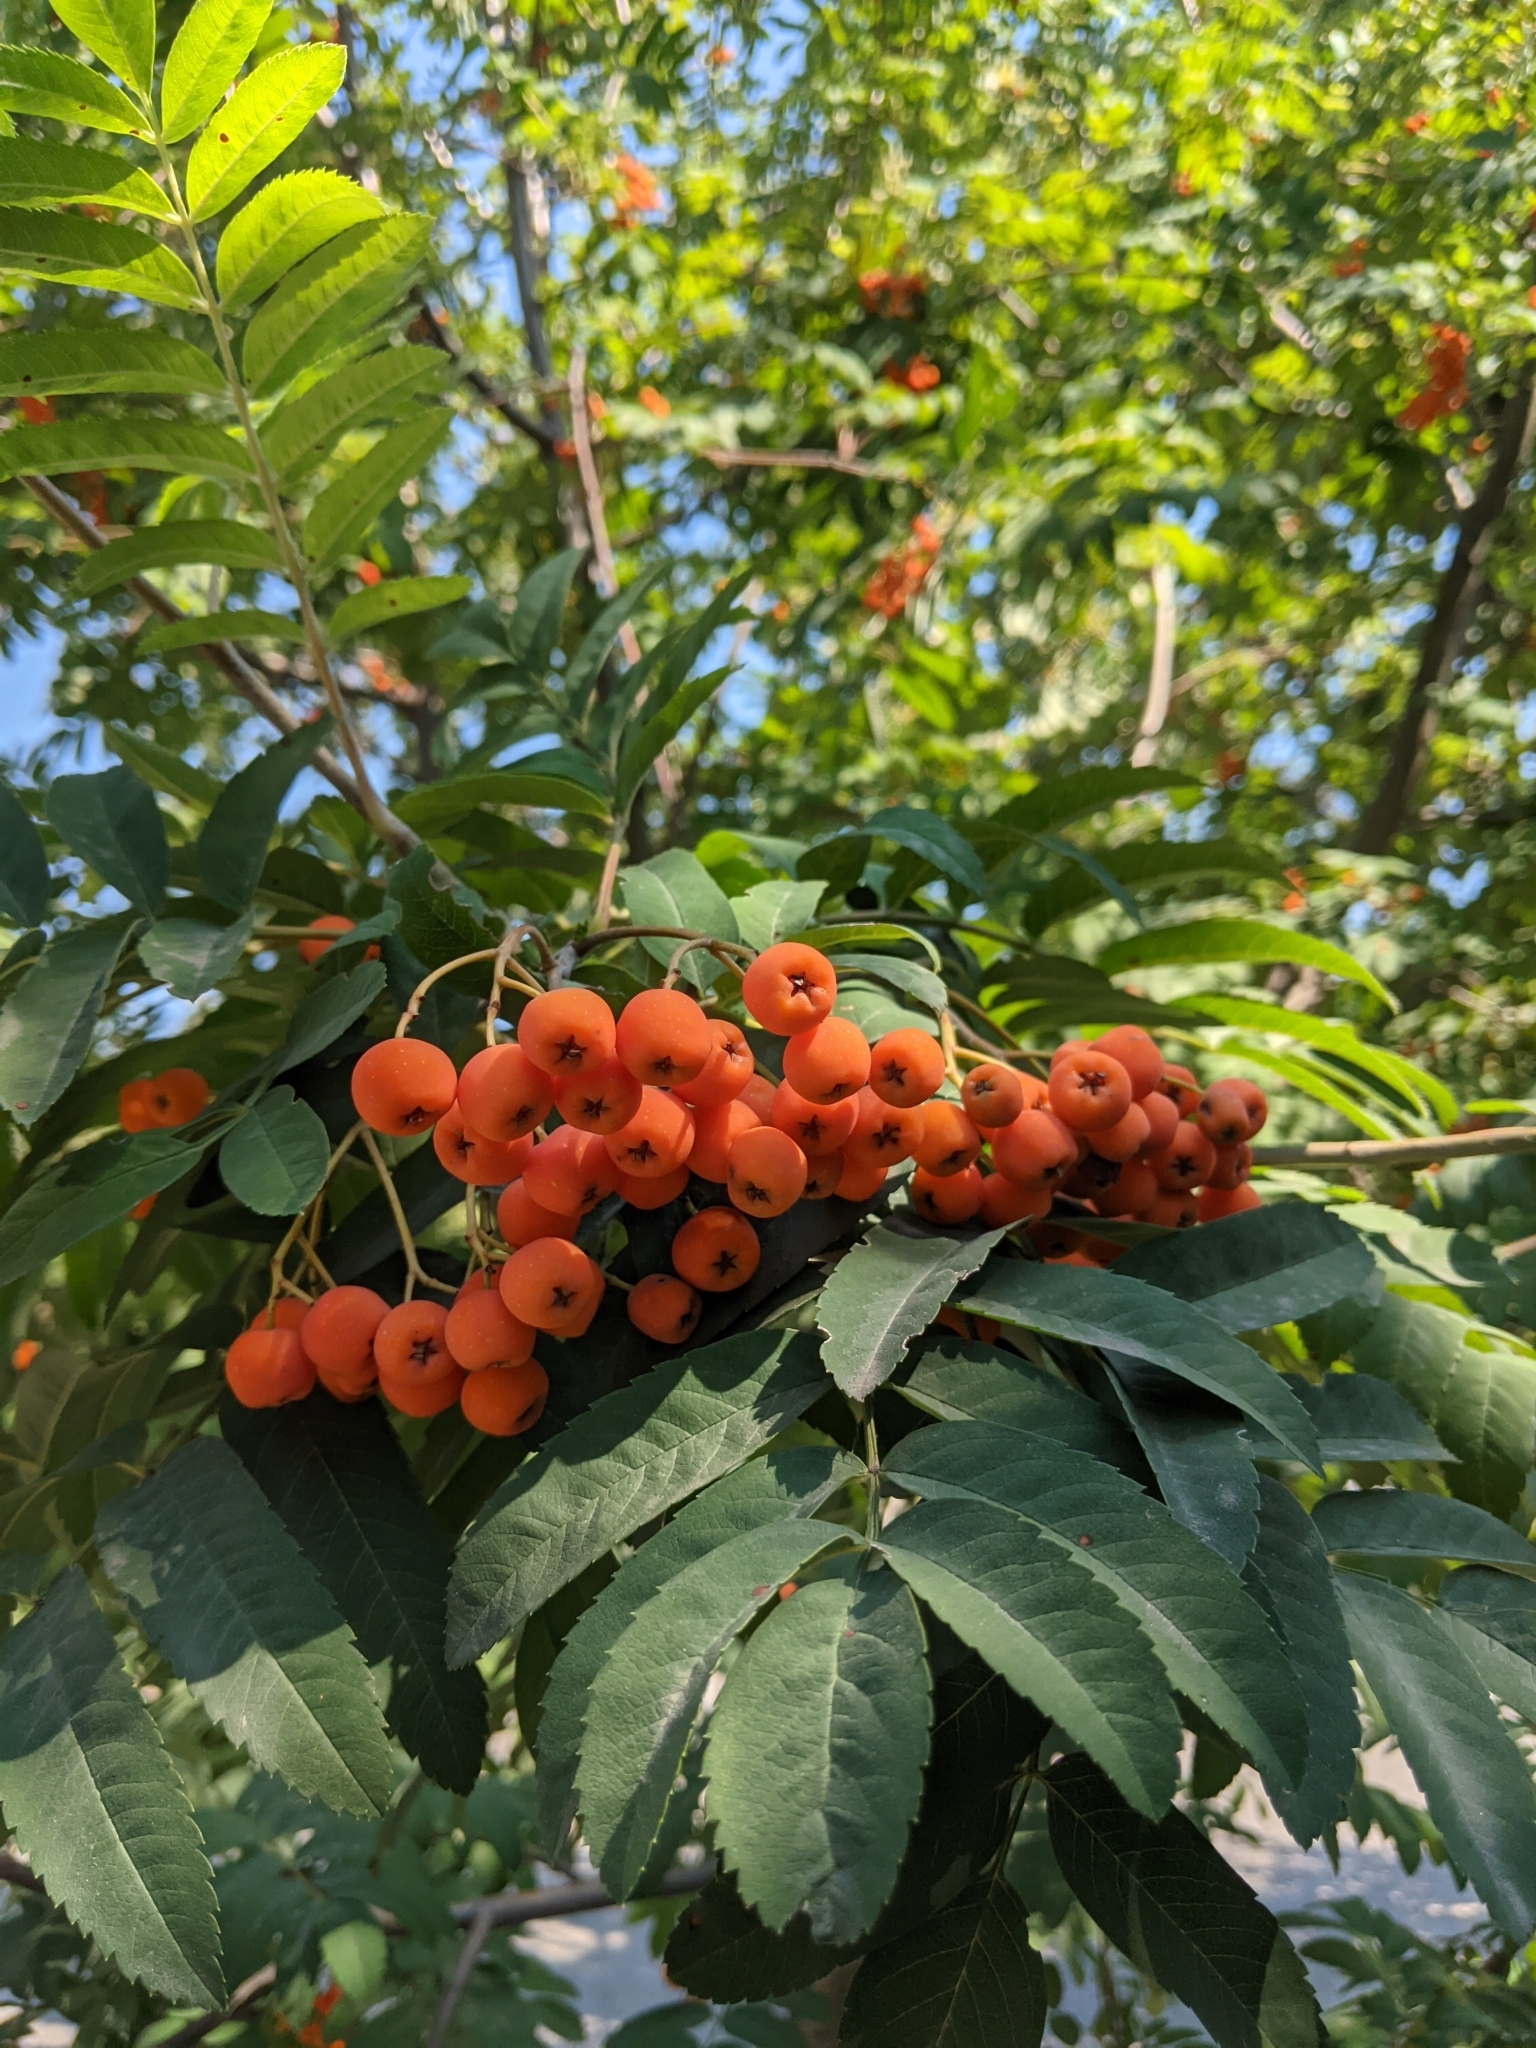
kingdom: Plantae
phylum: Tracheophyta
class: Magnoliopsida
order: Rosales
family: Rosaceae
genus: Sorbus
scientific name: Sorbus aucuparia
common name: Rowan
